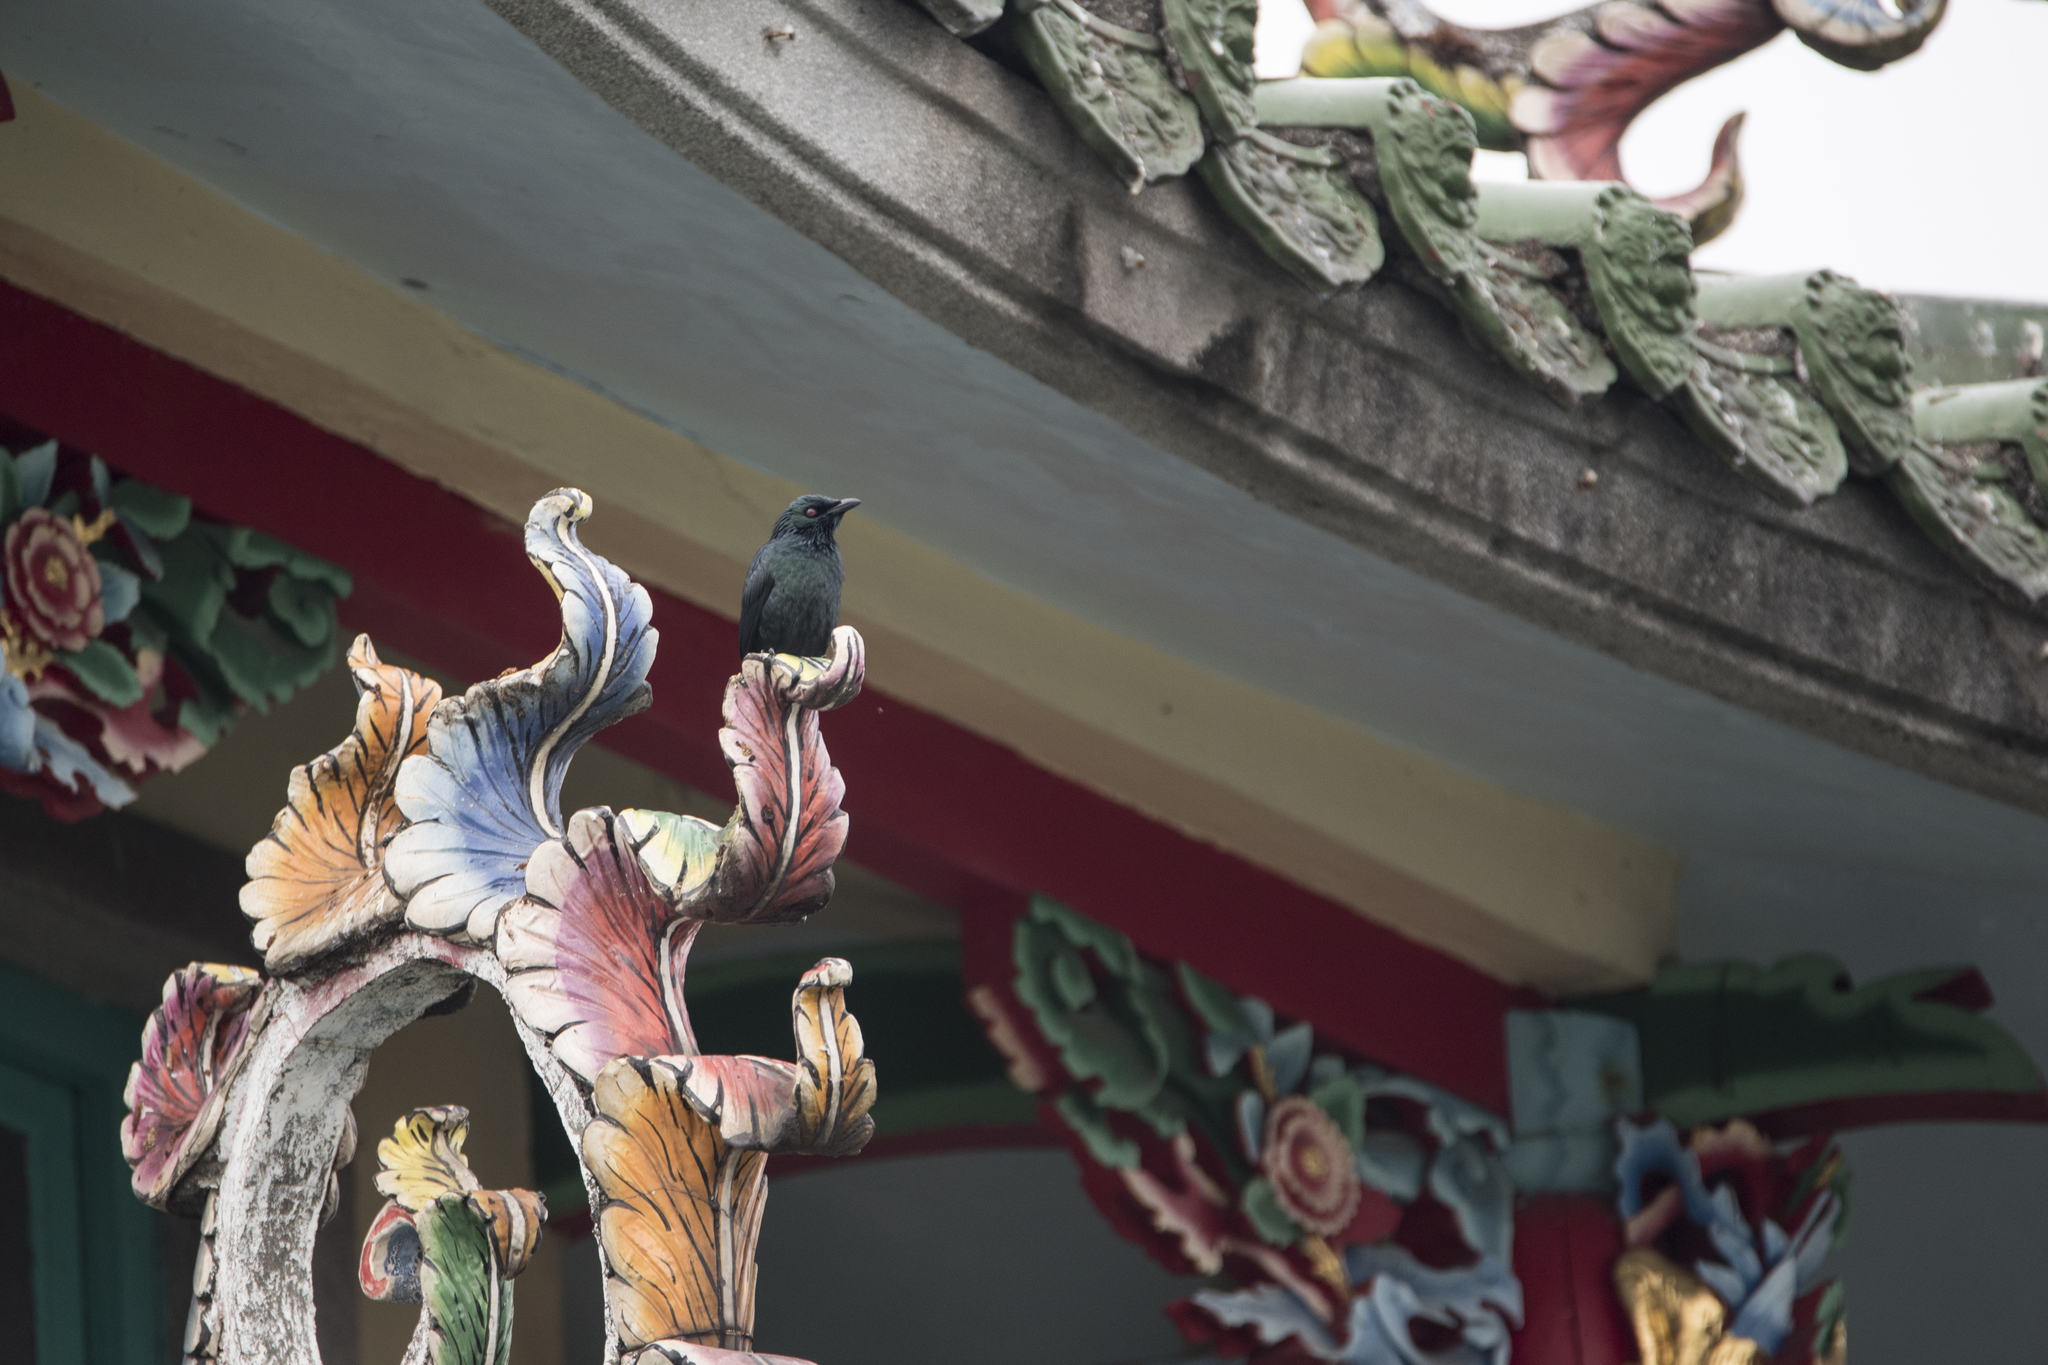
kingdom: Animalia
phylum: Chordata
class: Aves
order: Passeriformes
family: Sturnidae
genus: Aplonis
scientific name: Aplonis panayensis
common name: Asian glossy starling
